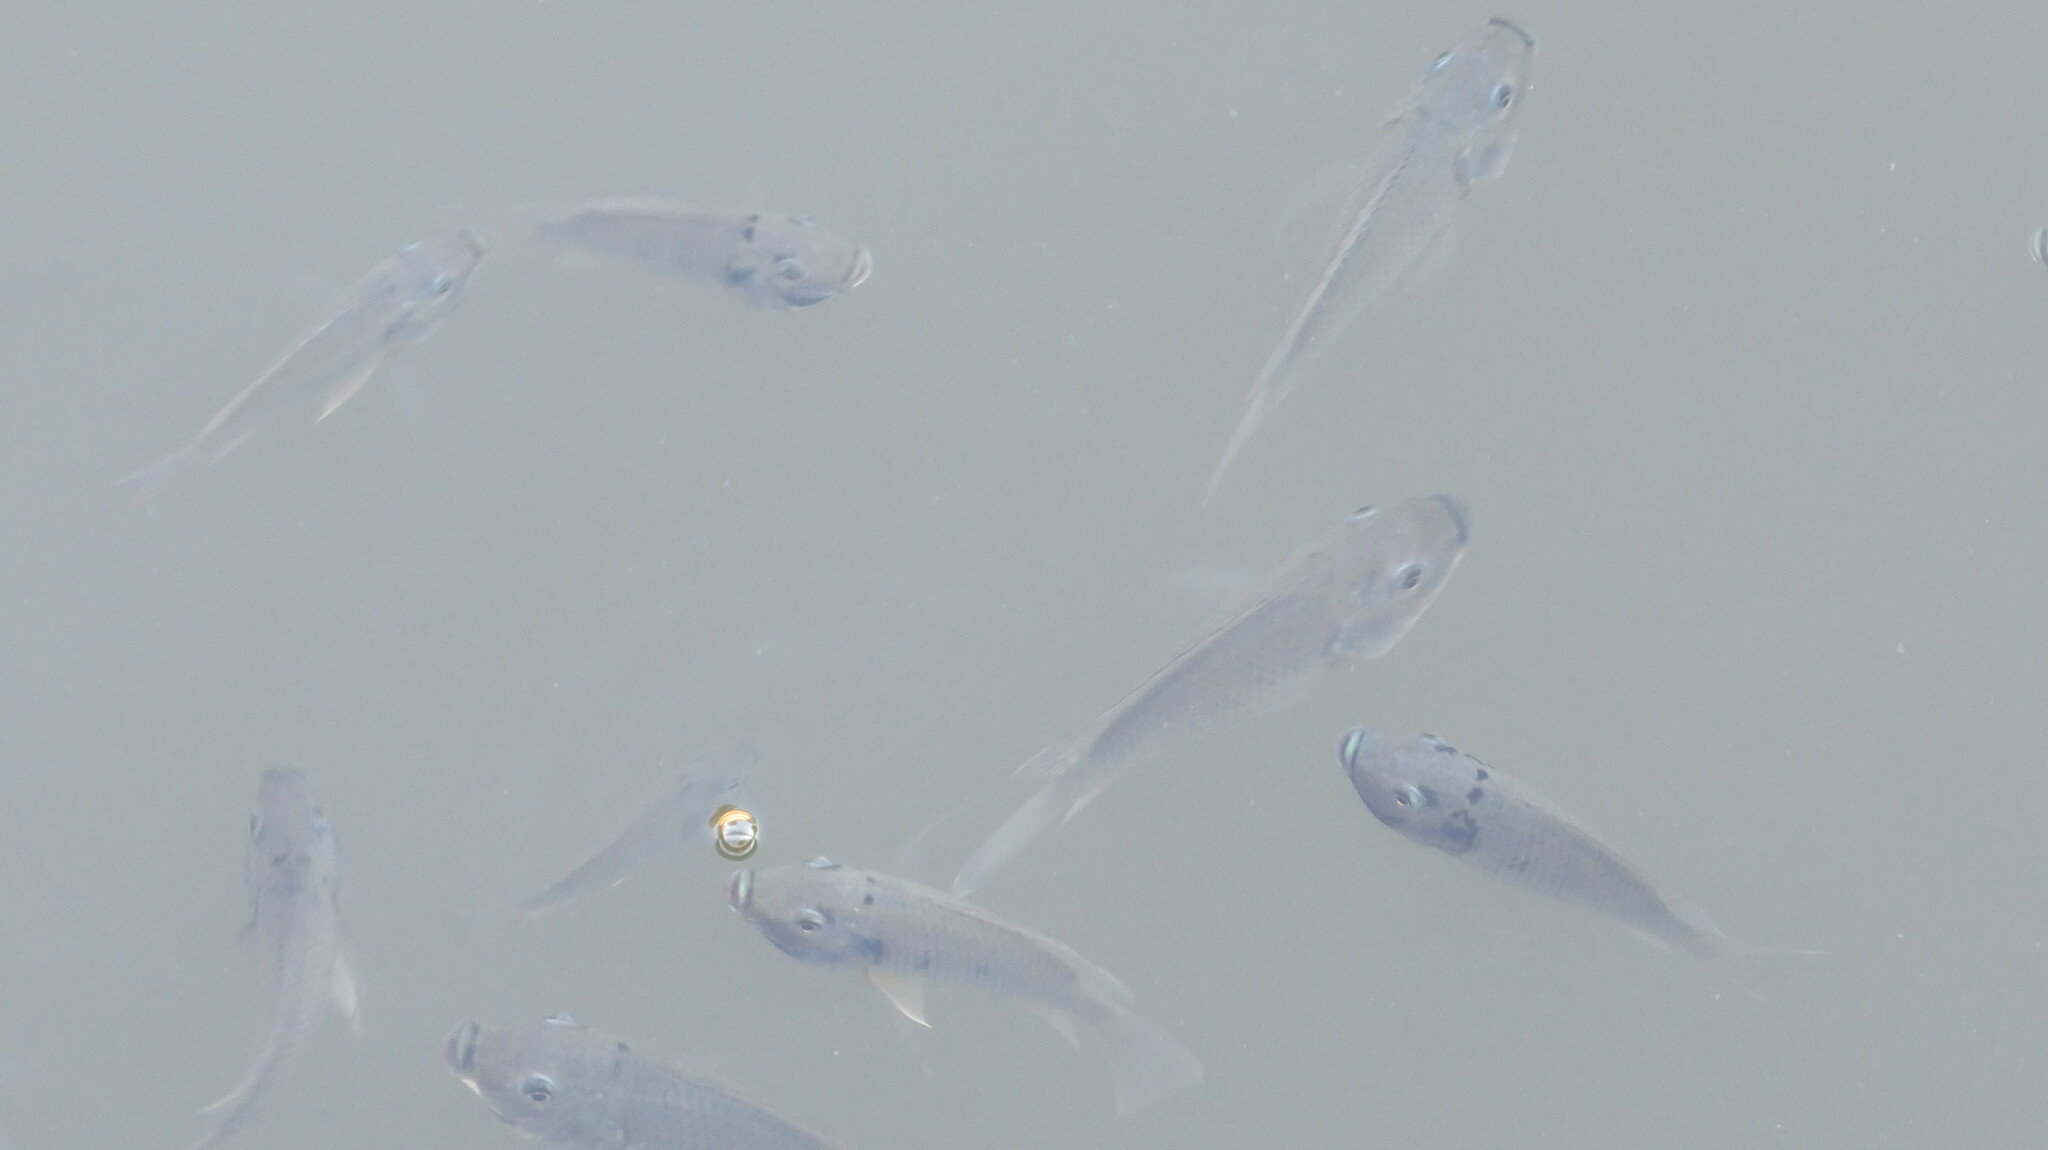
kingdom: Animalia
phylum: Chordata
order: Perciformes
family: Cichlidae
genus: Sarotherodon
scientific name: Sarotherodon melanotheron
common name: Blackchin tilapia
